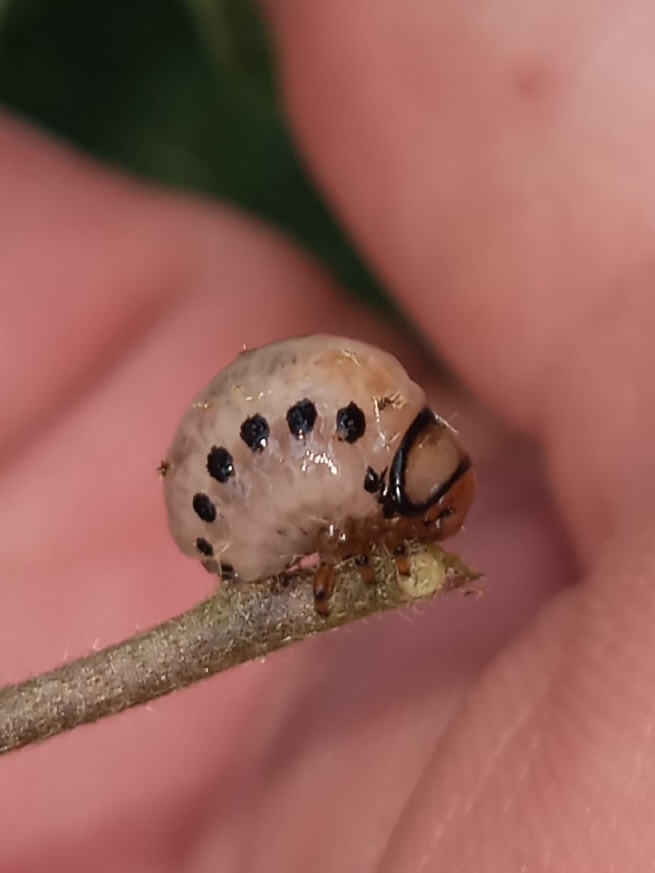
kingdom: Animalia
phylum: Arthropoda
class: Insecta
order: Coleoptera
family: Chrysomelidae
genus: Leptinotarsa
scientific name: Leptinotarsa juncta
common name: False potato beetle
